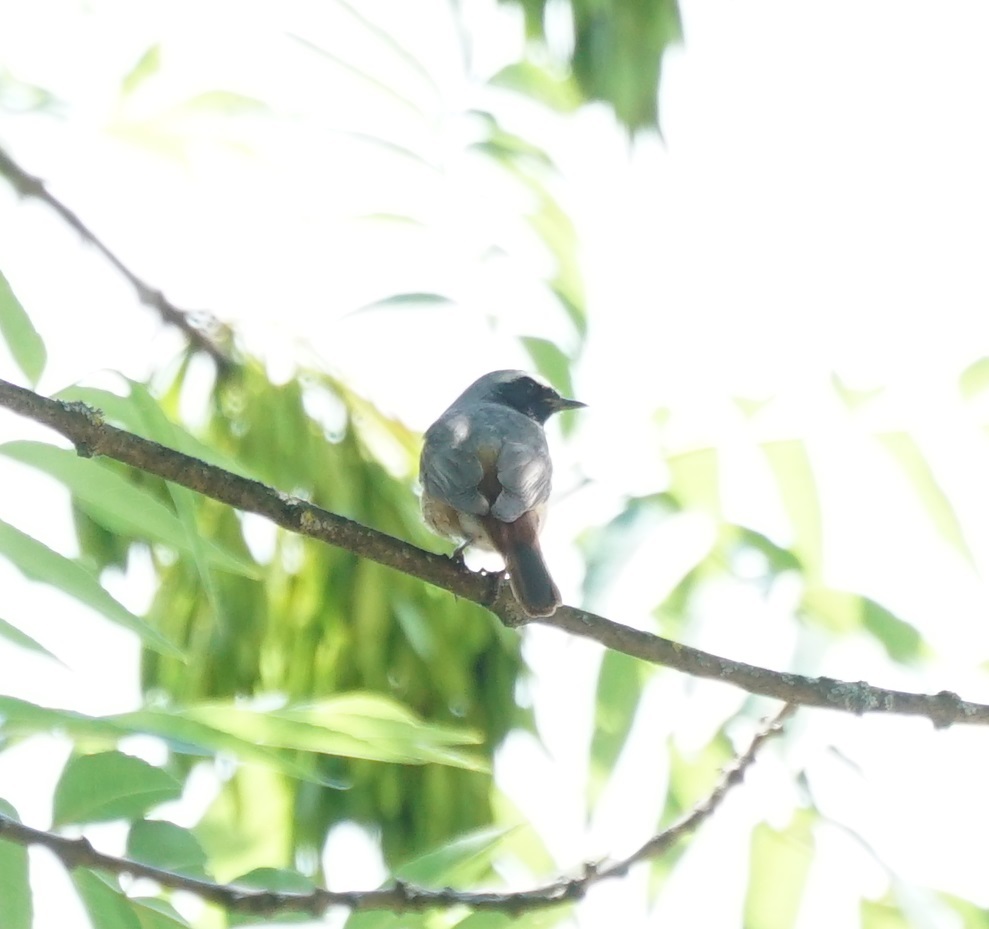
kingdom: Animalia
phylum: Chordata
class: Aves
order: Passeriformes
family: Muscicapidae
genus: Phoenicurus
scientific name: Phoenicurus phoenicurus
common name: Common redstart
